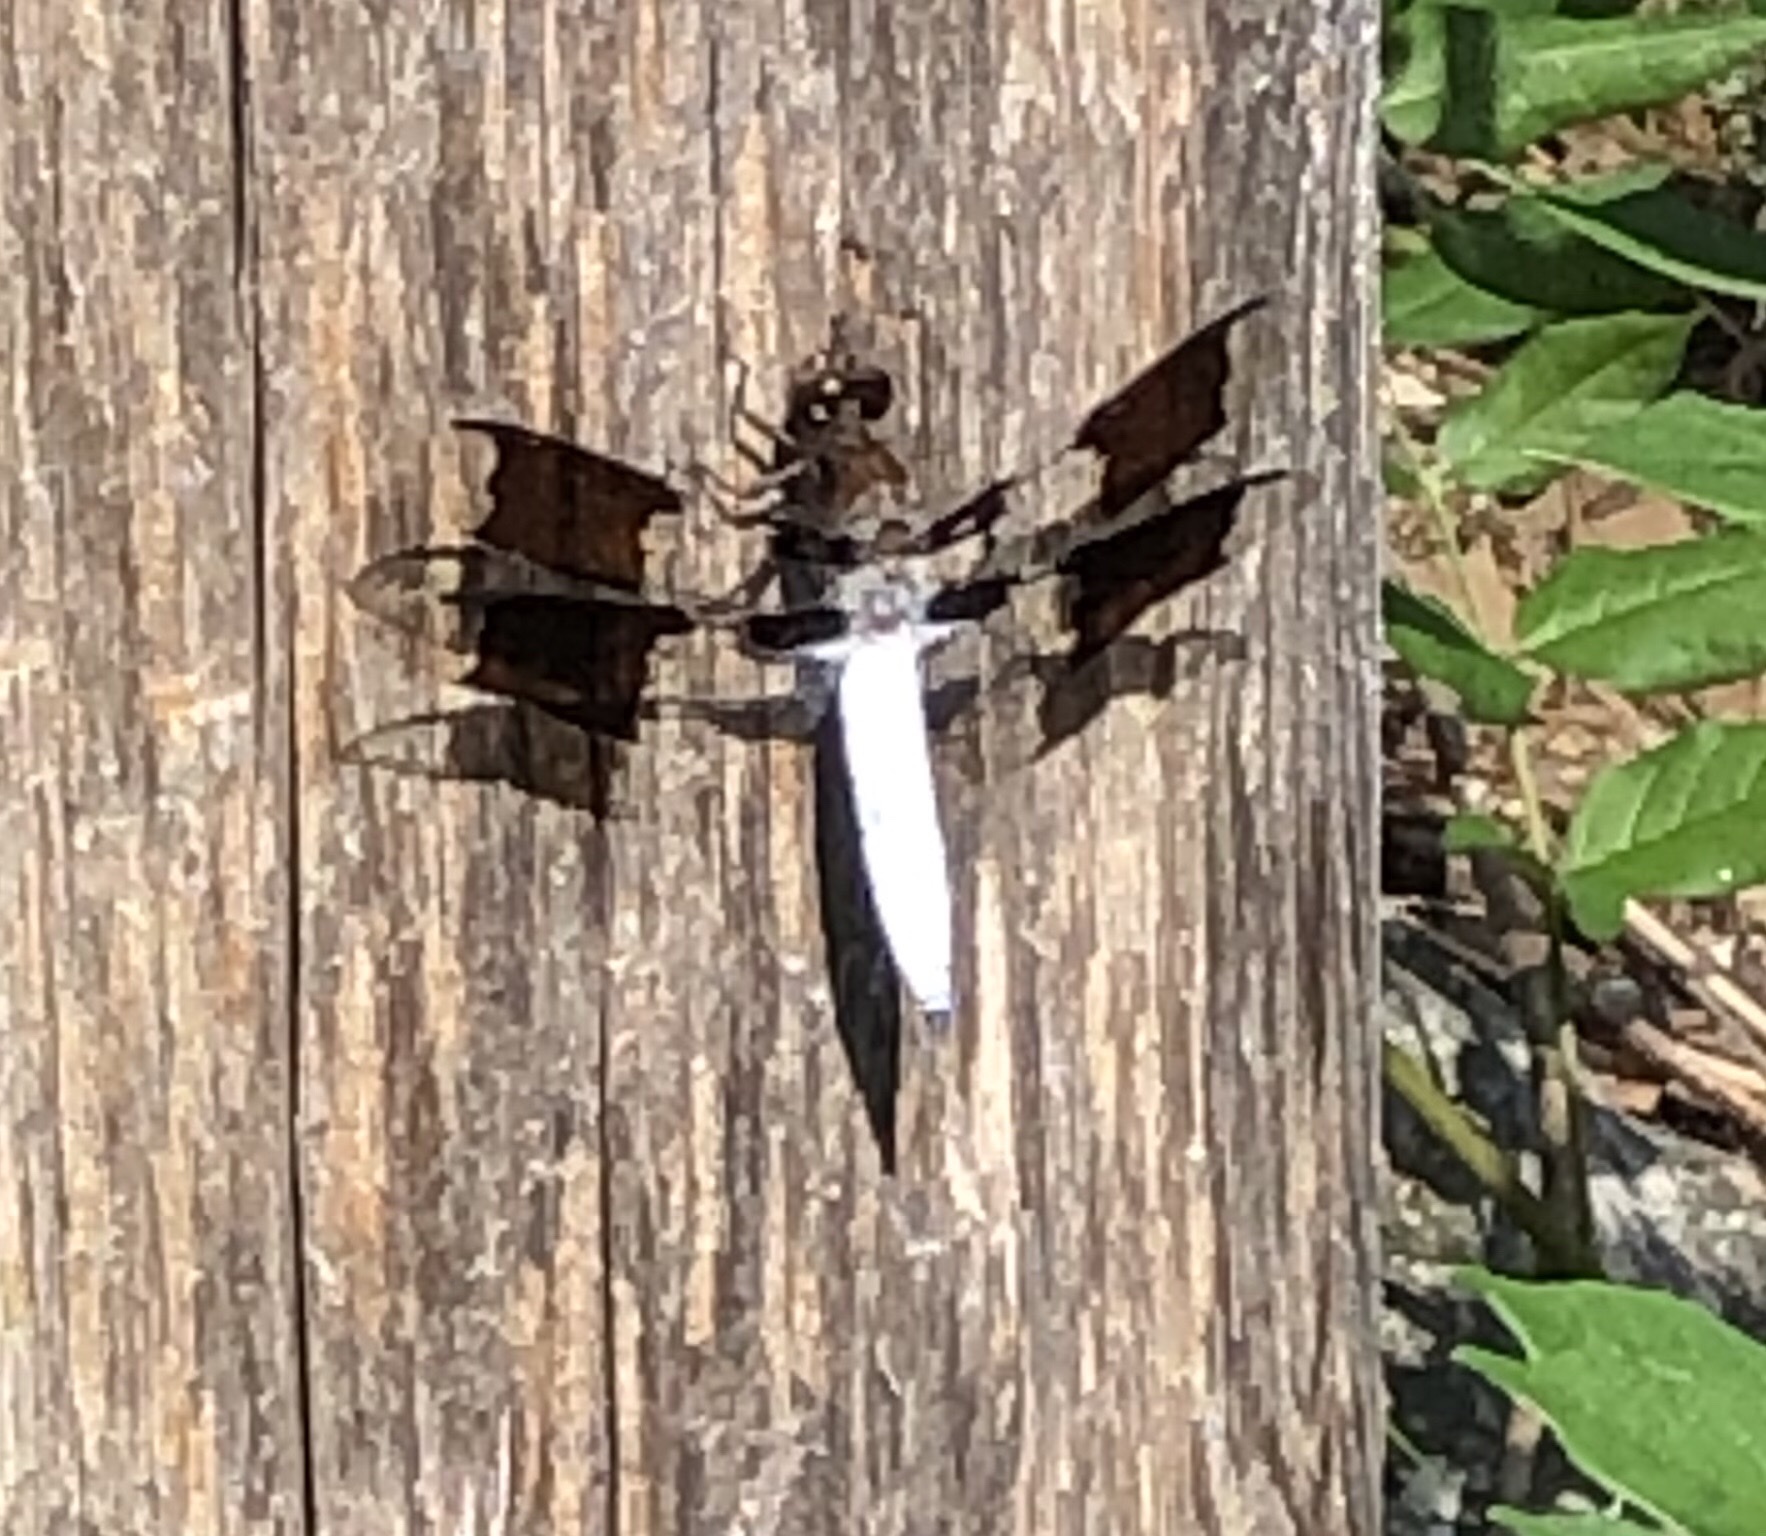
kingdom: Animalia
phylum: Arthropoda
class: Insecta
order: Odonata
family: Libellulidae
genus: Plathemis
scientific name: Plathemis lydia
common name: Common whitetail
